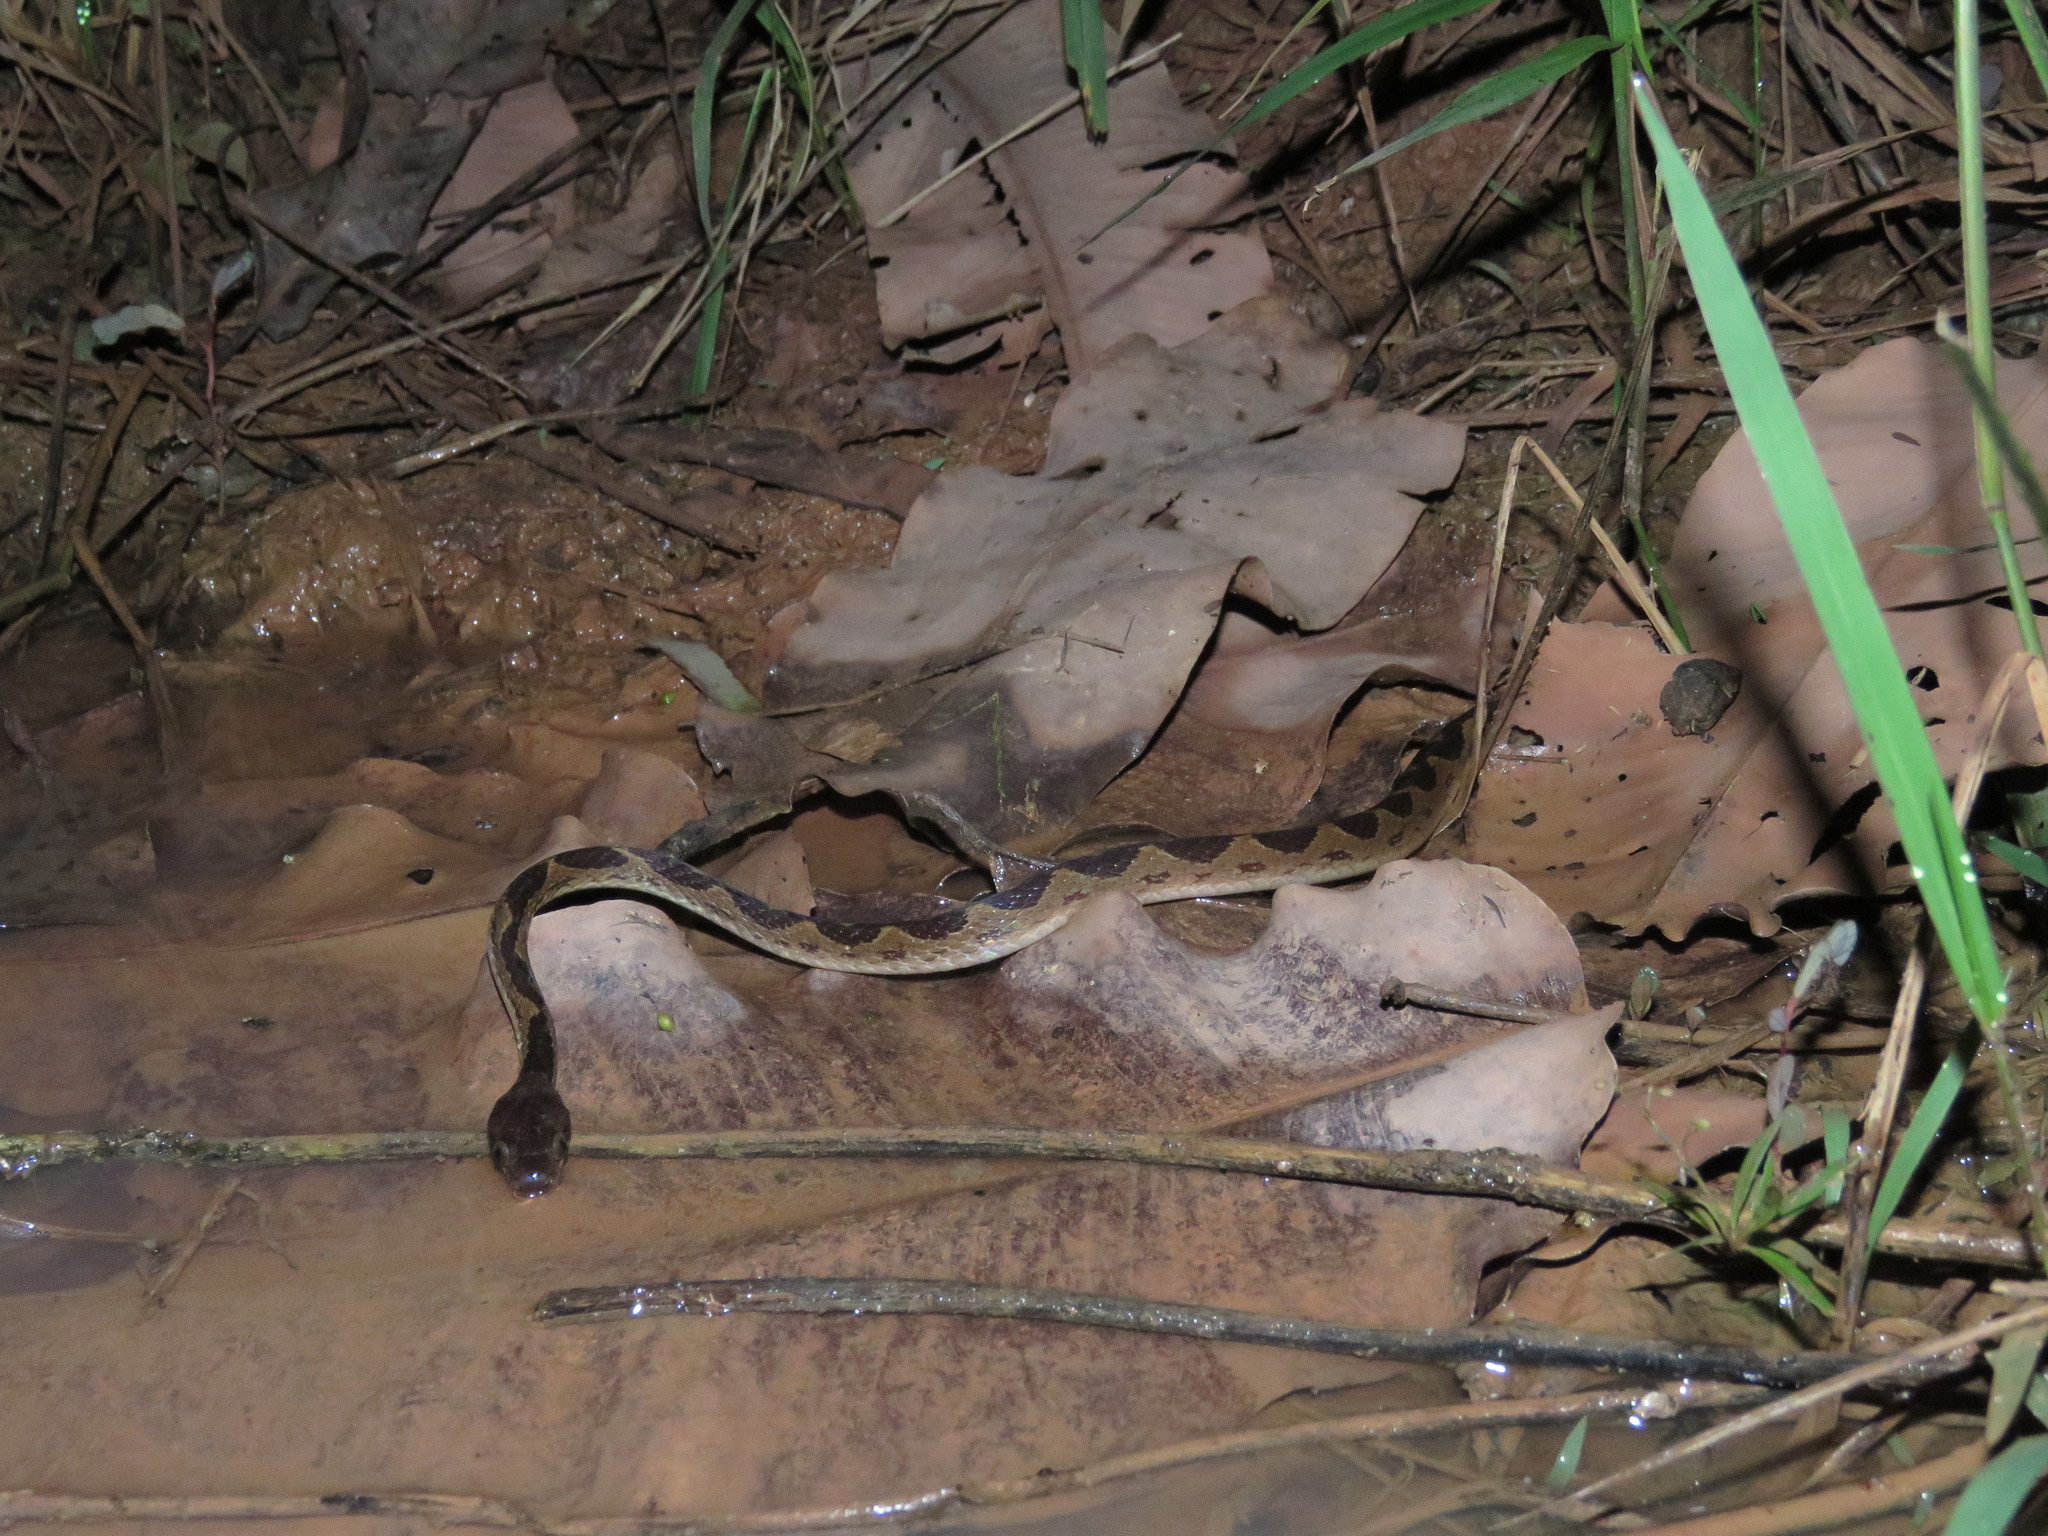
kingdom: Animalia
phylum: Chordata
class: Squamata
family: Colubridae
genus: Leptodeira
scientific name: Leptodeira annulata
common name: Banded cat-eyed snake
